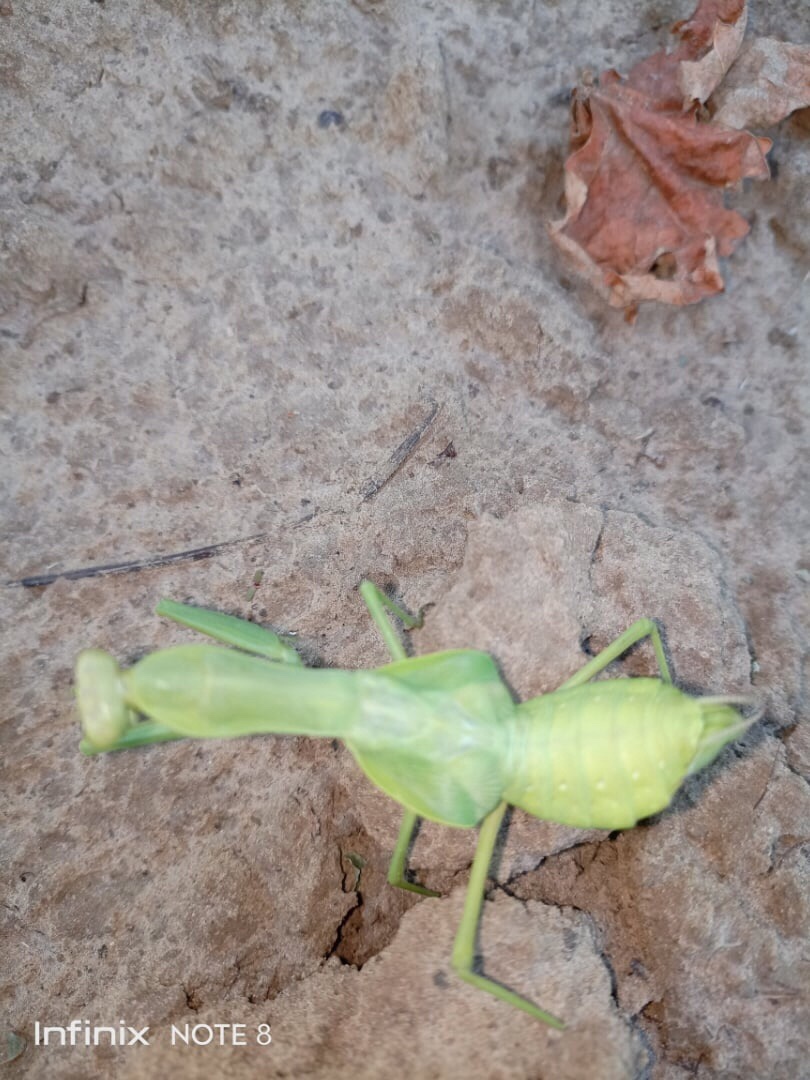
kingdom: Animalia
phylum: Arthropoda
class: Insecta
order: Mantodea
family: Mantidae
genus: Hierodula
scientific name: Hierodula transcaucasica
